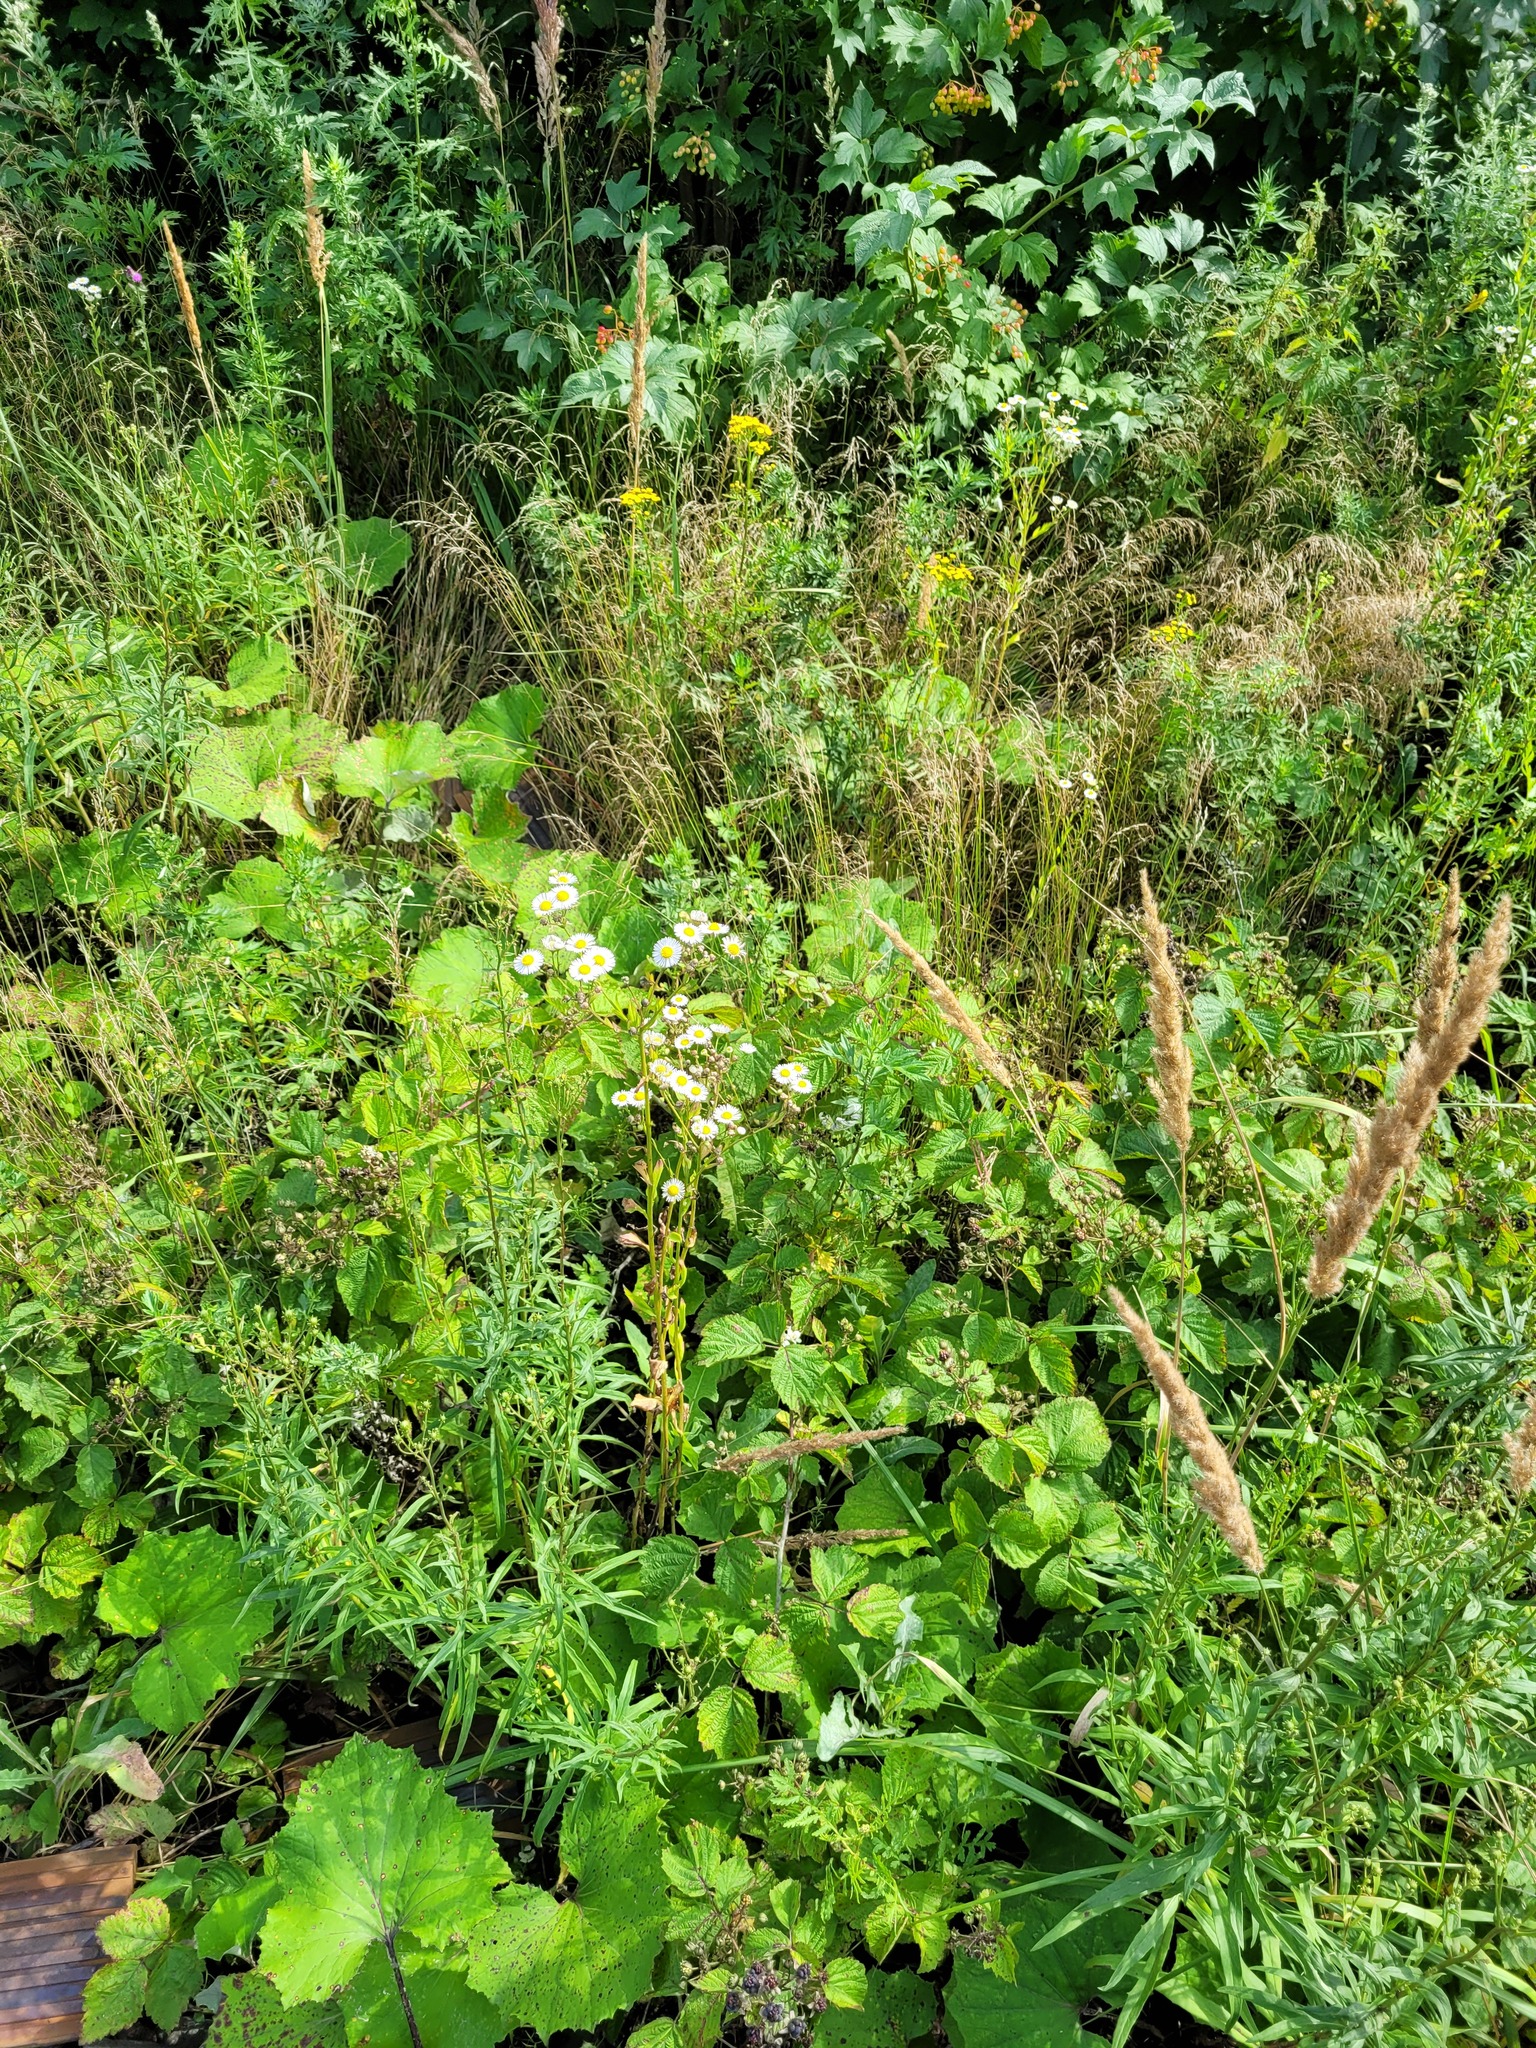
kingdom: Plantae
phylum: Tracheophyta
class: Magnoliopsida
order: Asterales
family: Asteraceae
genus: Erigeron
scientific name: Erigeron annuus
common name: Tall fleabane
